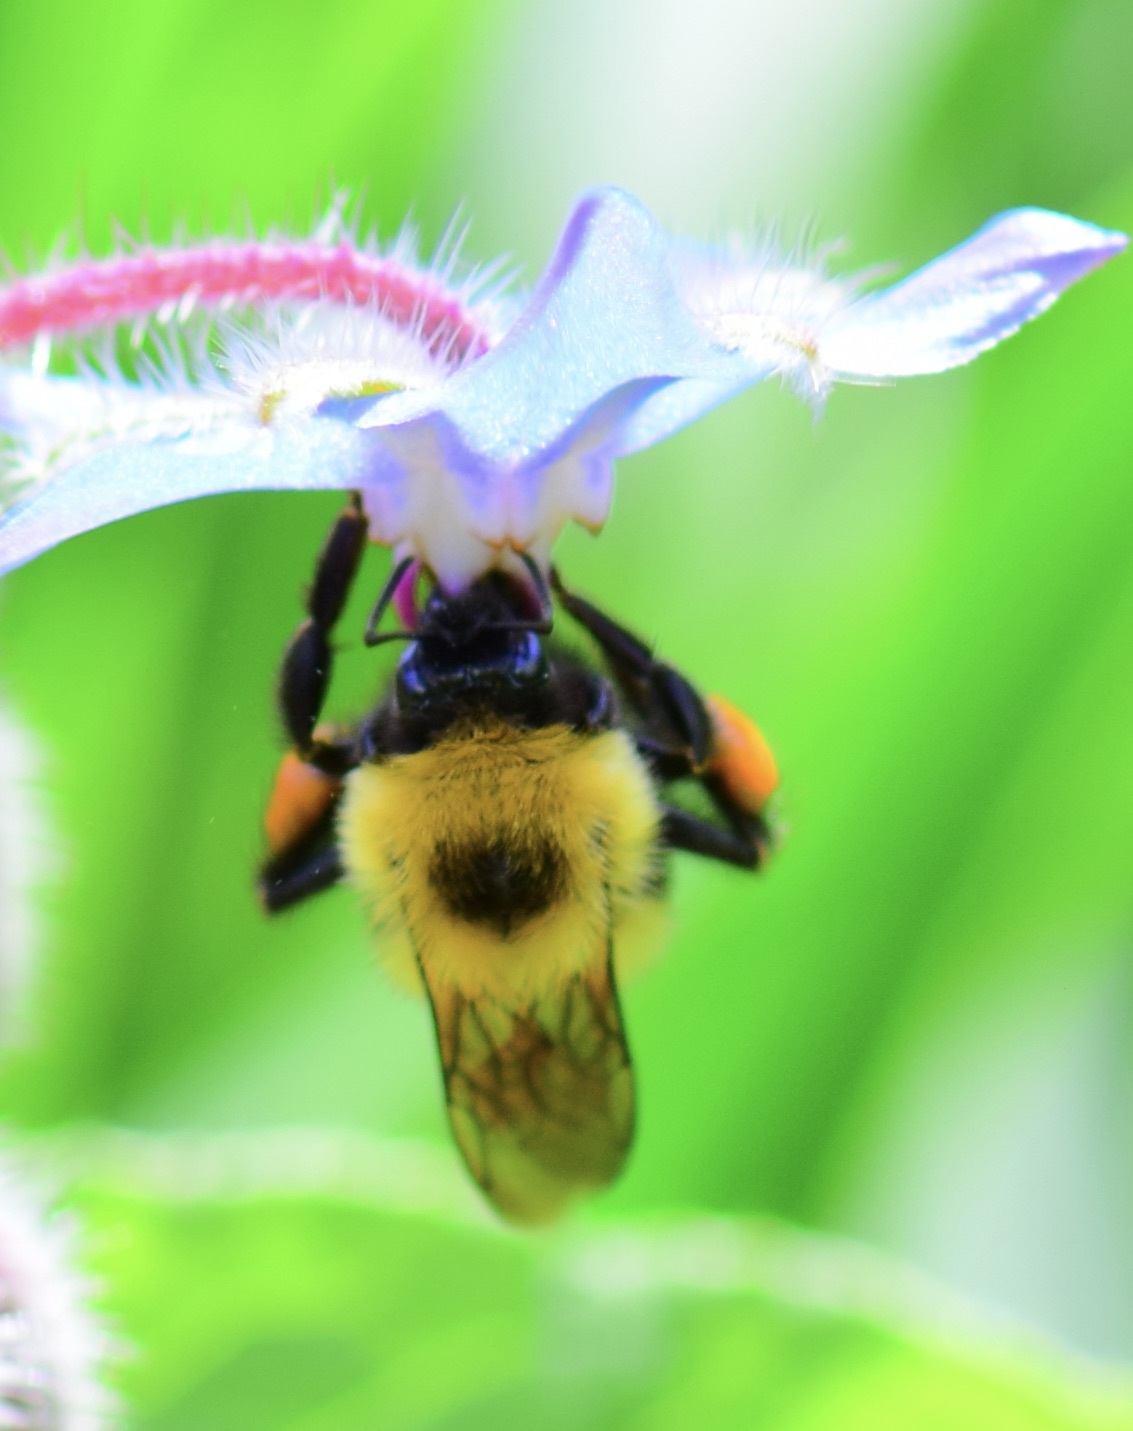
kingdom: Animalia
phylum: Arthropoda
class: Insecta
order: Hymenoptera
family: Apidae
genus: Bombus
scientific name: Bombus bimaculatus
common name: Two-spotted bumble bee
